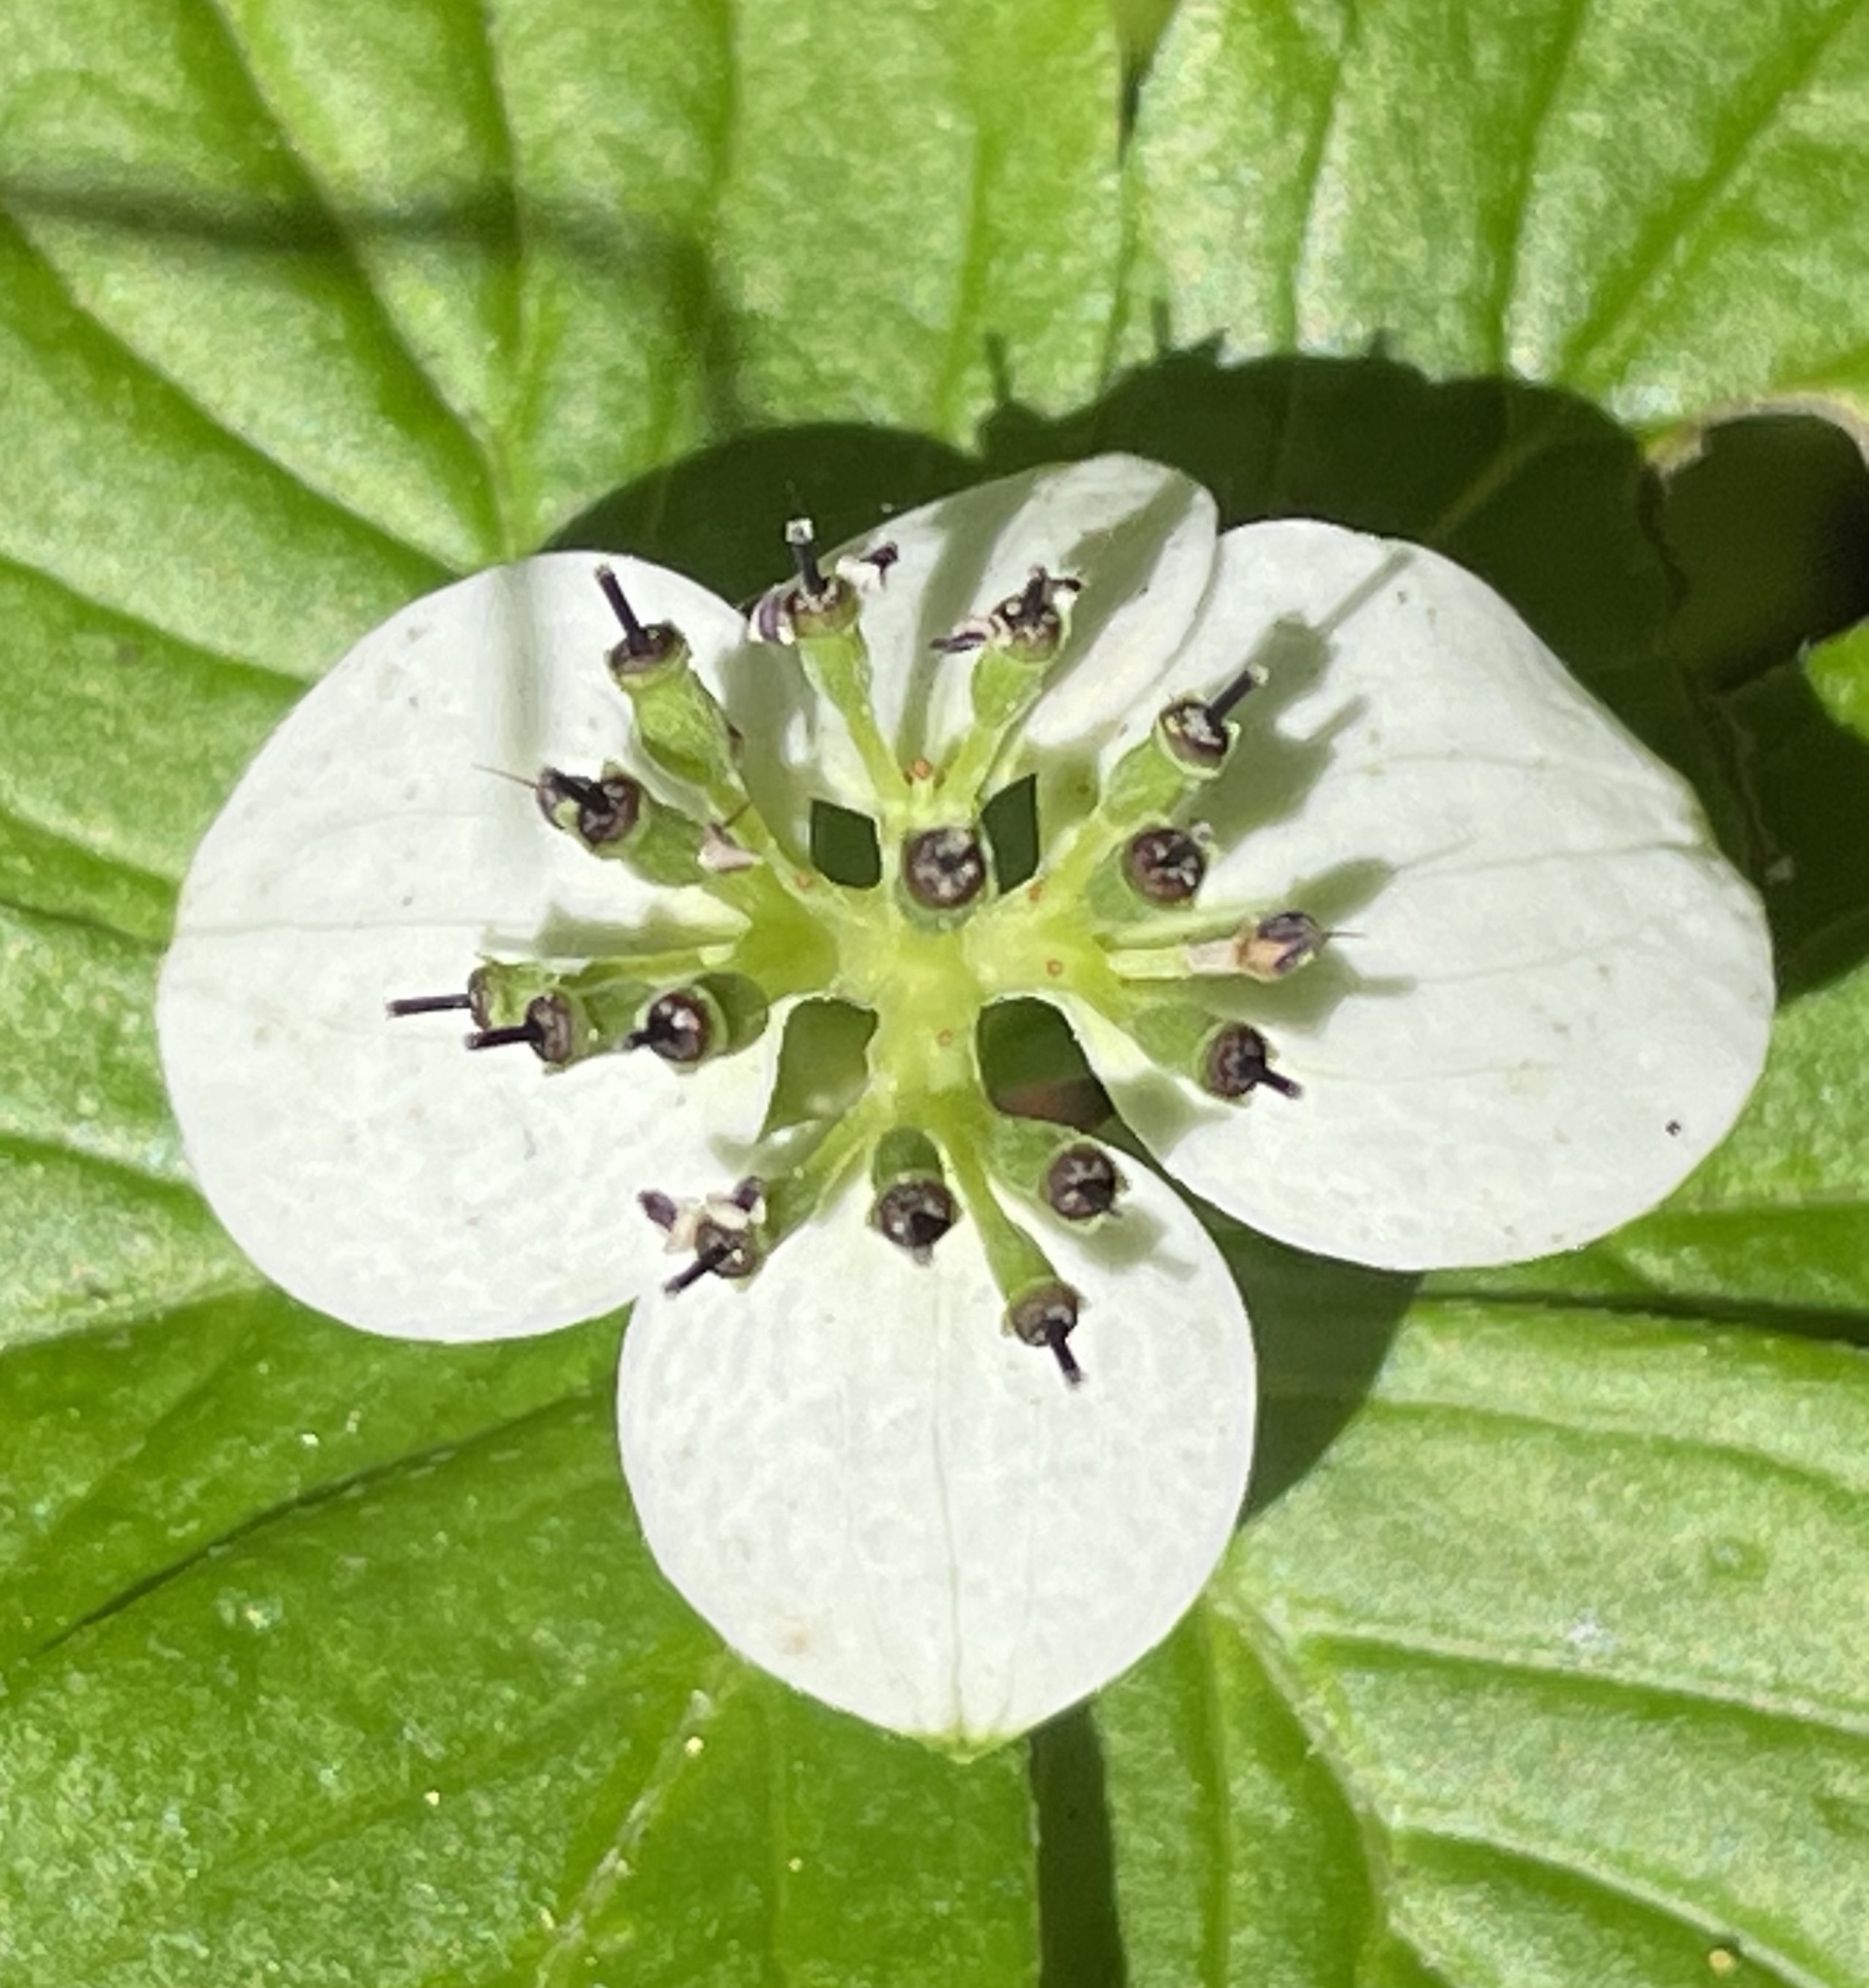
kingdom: Plantae
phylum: Tracheophyta
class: Magnoliopsida
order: Cornales
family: Cornaceae
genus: Cornus
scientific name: Cornus unalaschkensis
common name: Alaska bunchberry
